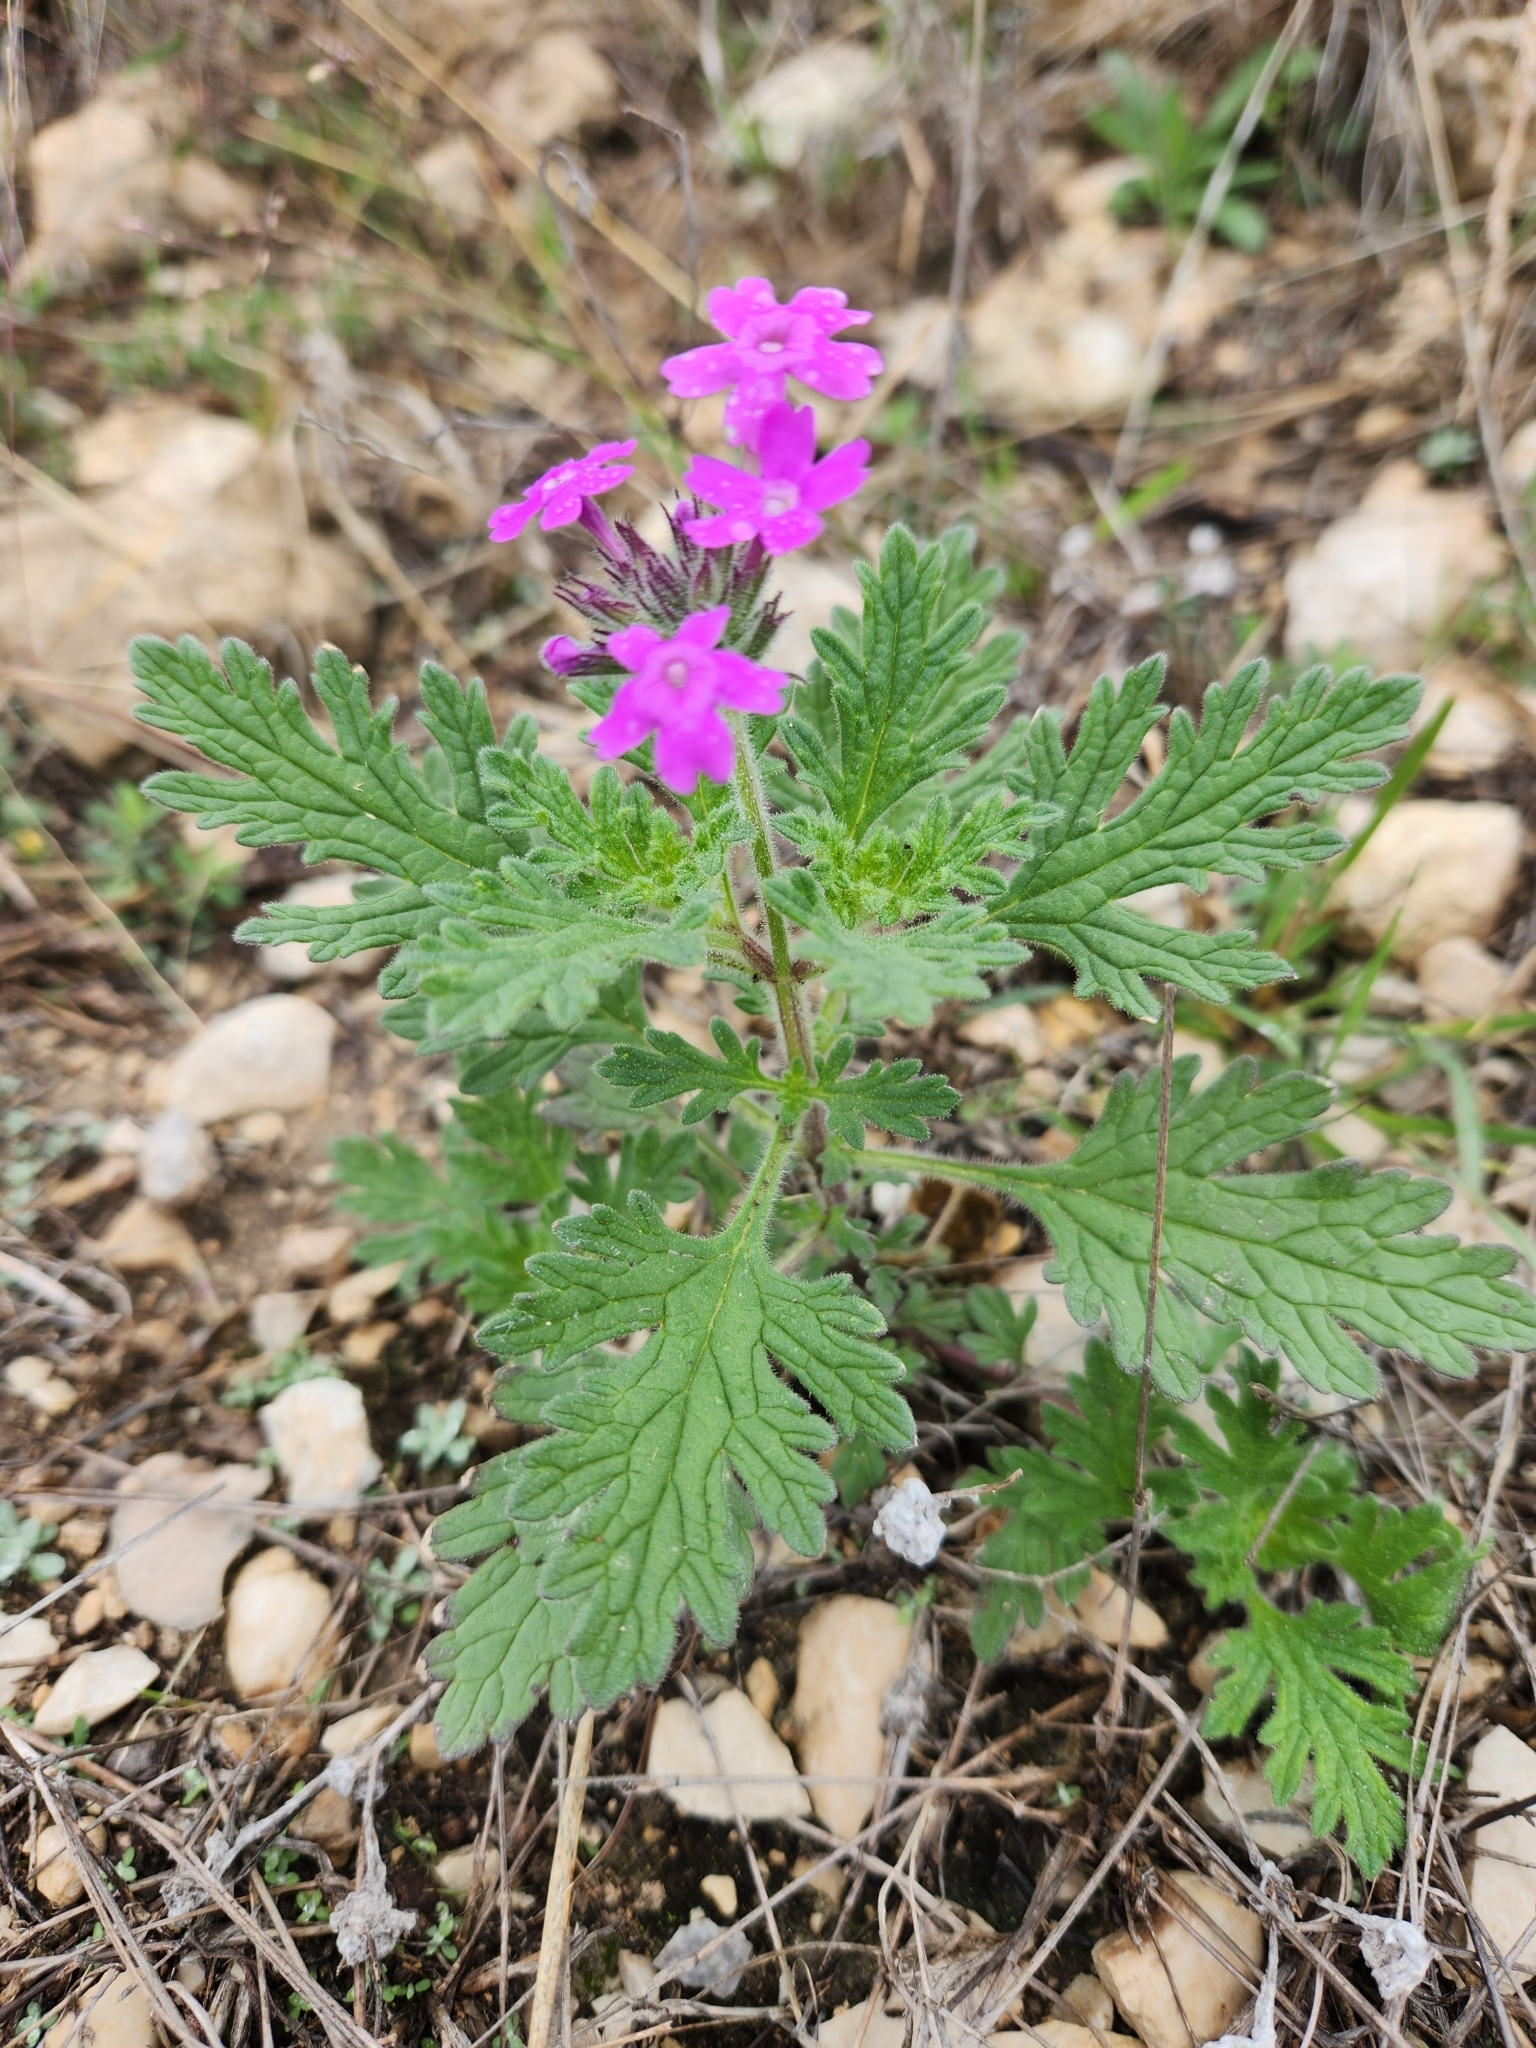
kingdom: Plantae
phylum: Tracheophyta
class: Magnoliopsida
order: Lamiales
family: Verbenaceae
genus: Verbena
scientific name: Verbena tumidula
